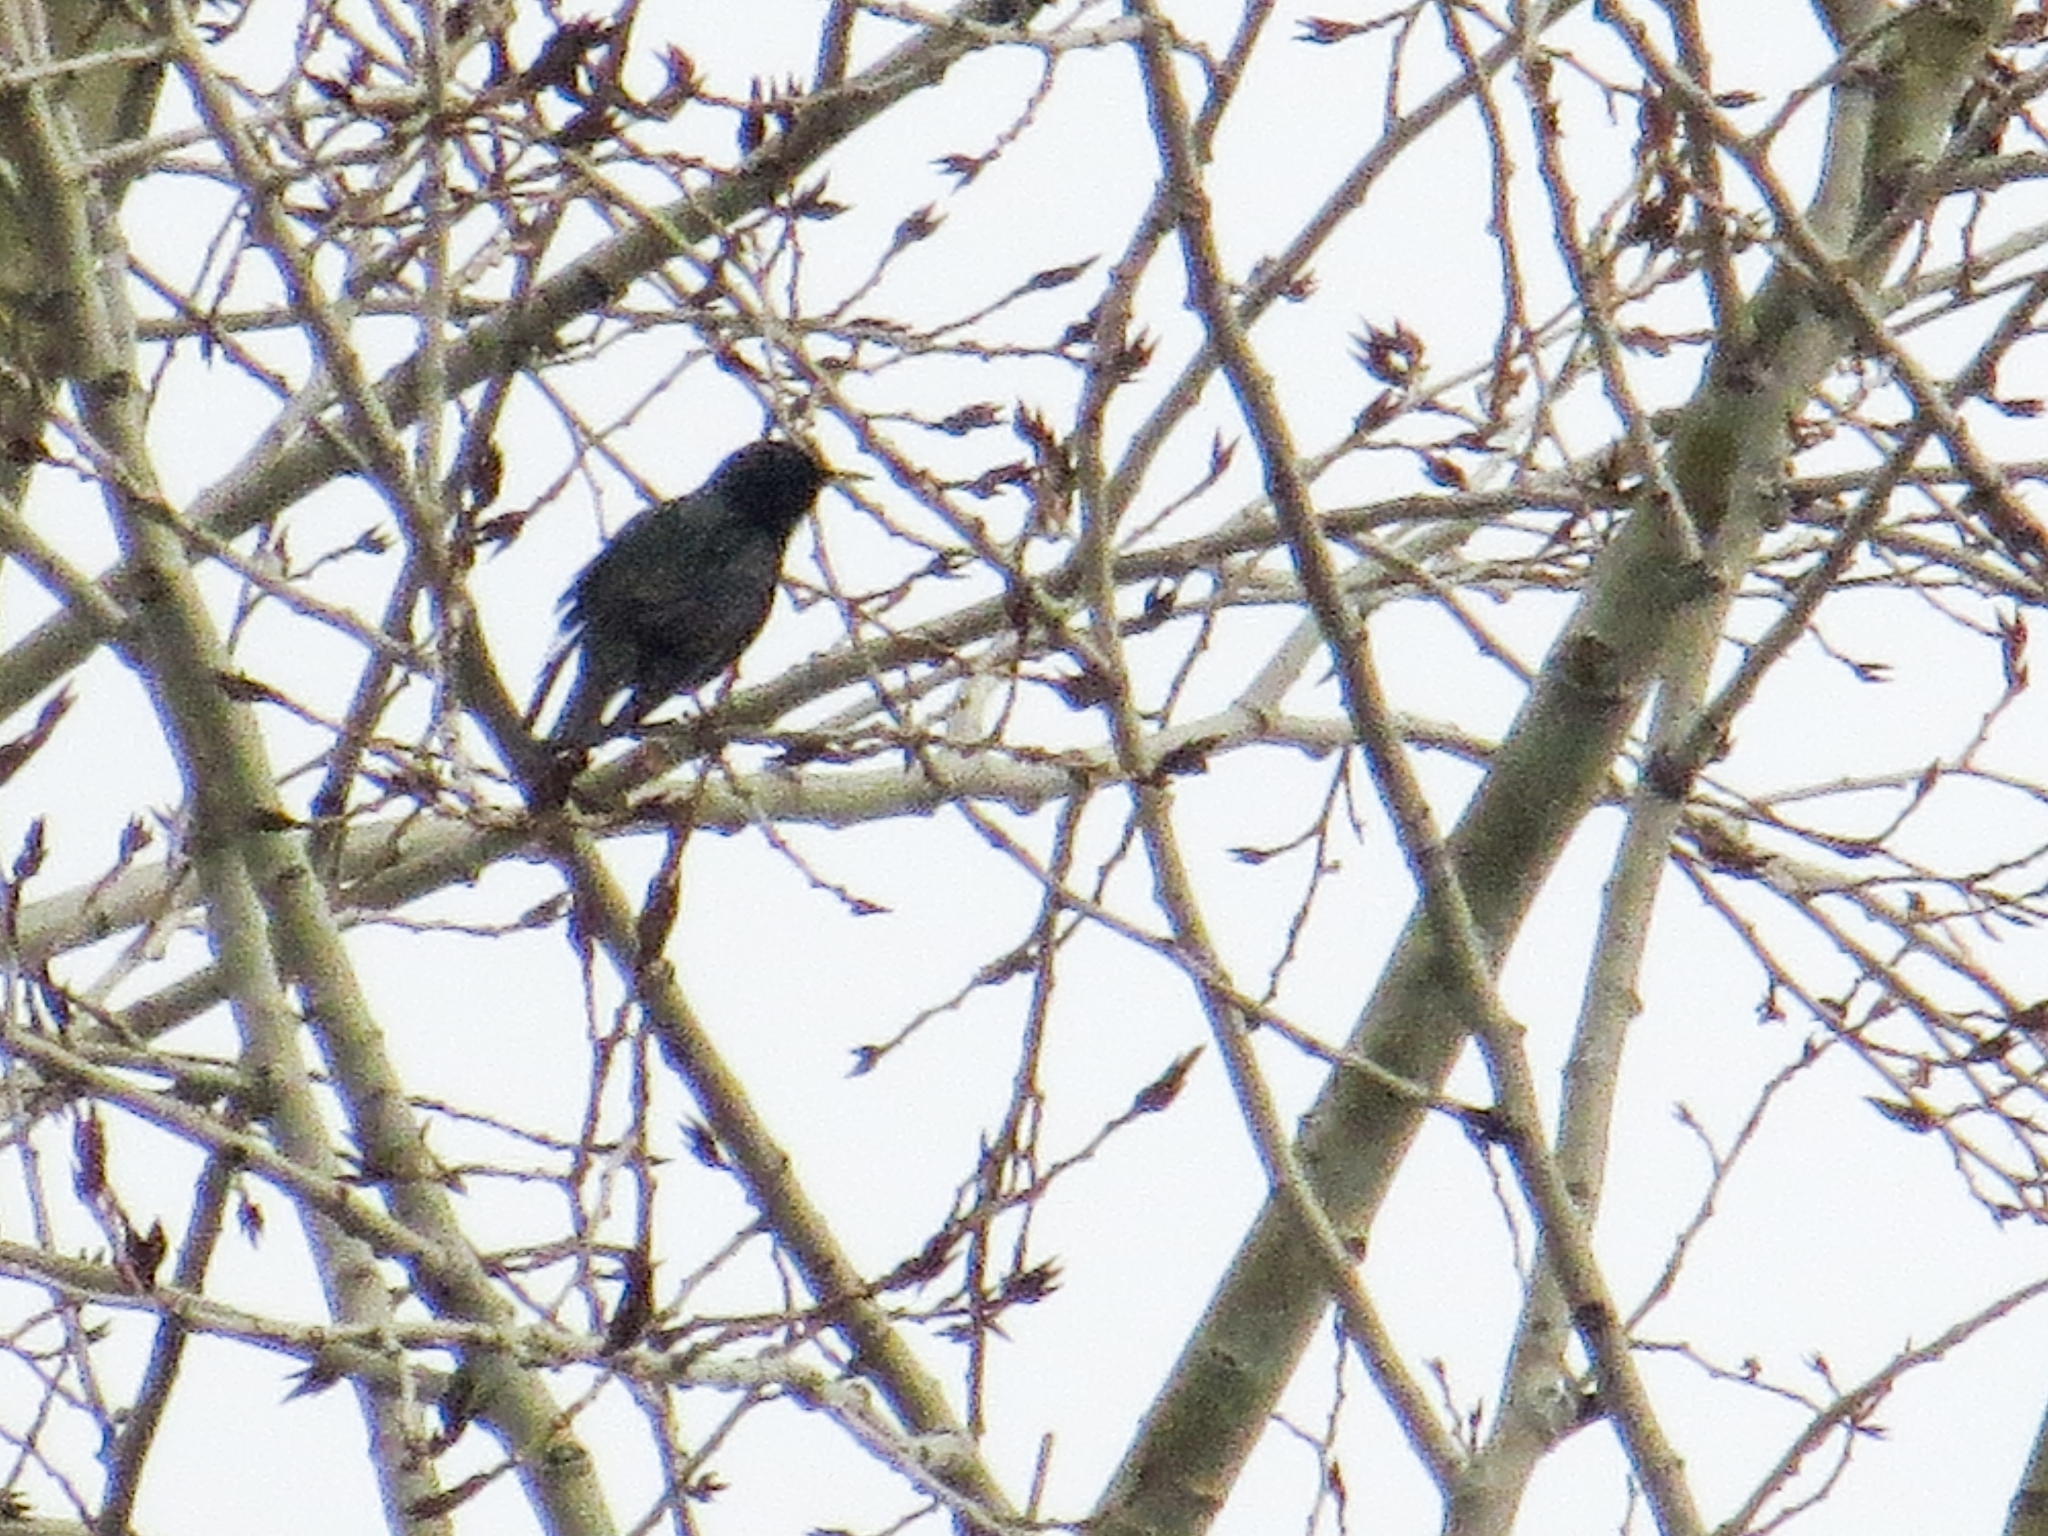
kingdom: Animalia
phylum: Chordata
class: Aves
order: Passeriformes
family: Sturnidae
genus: Sturnus
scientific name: Sturnus vulgaris
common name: Common starling
